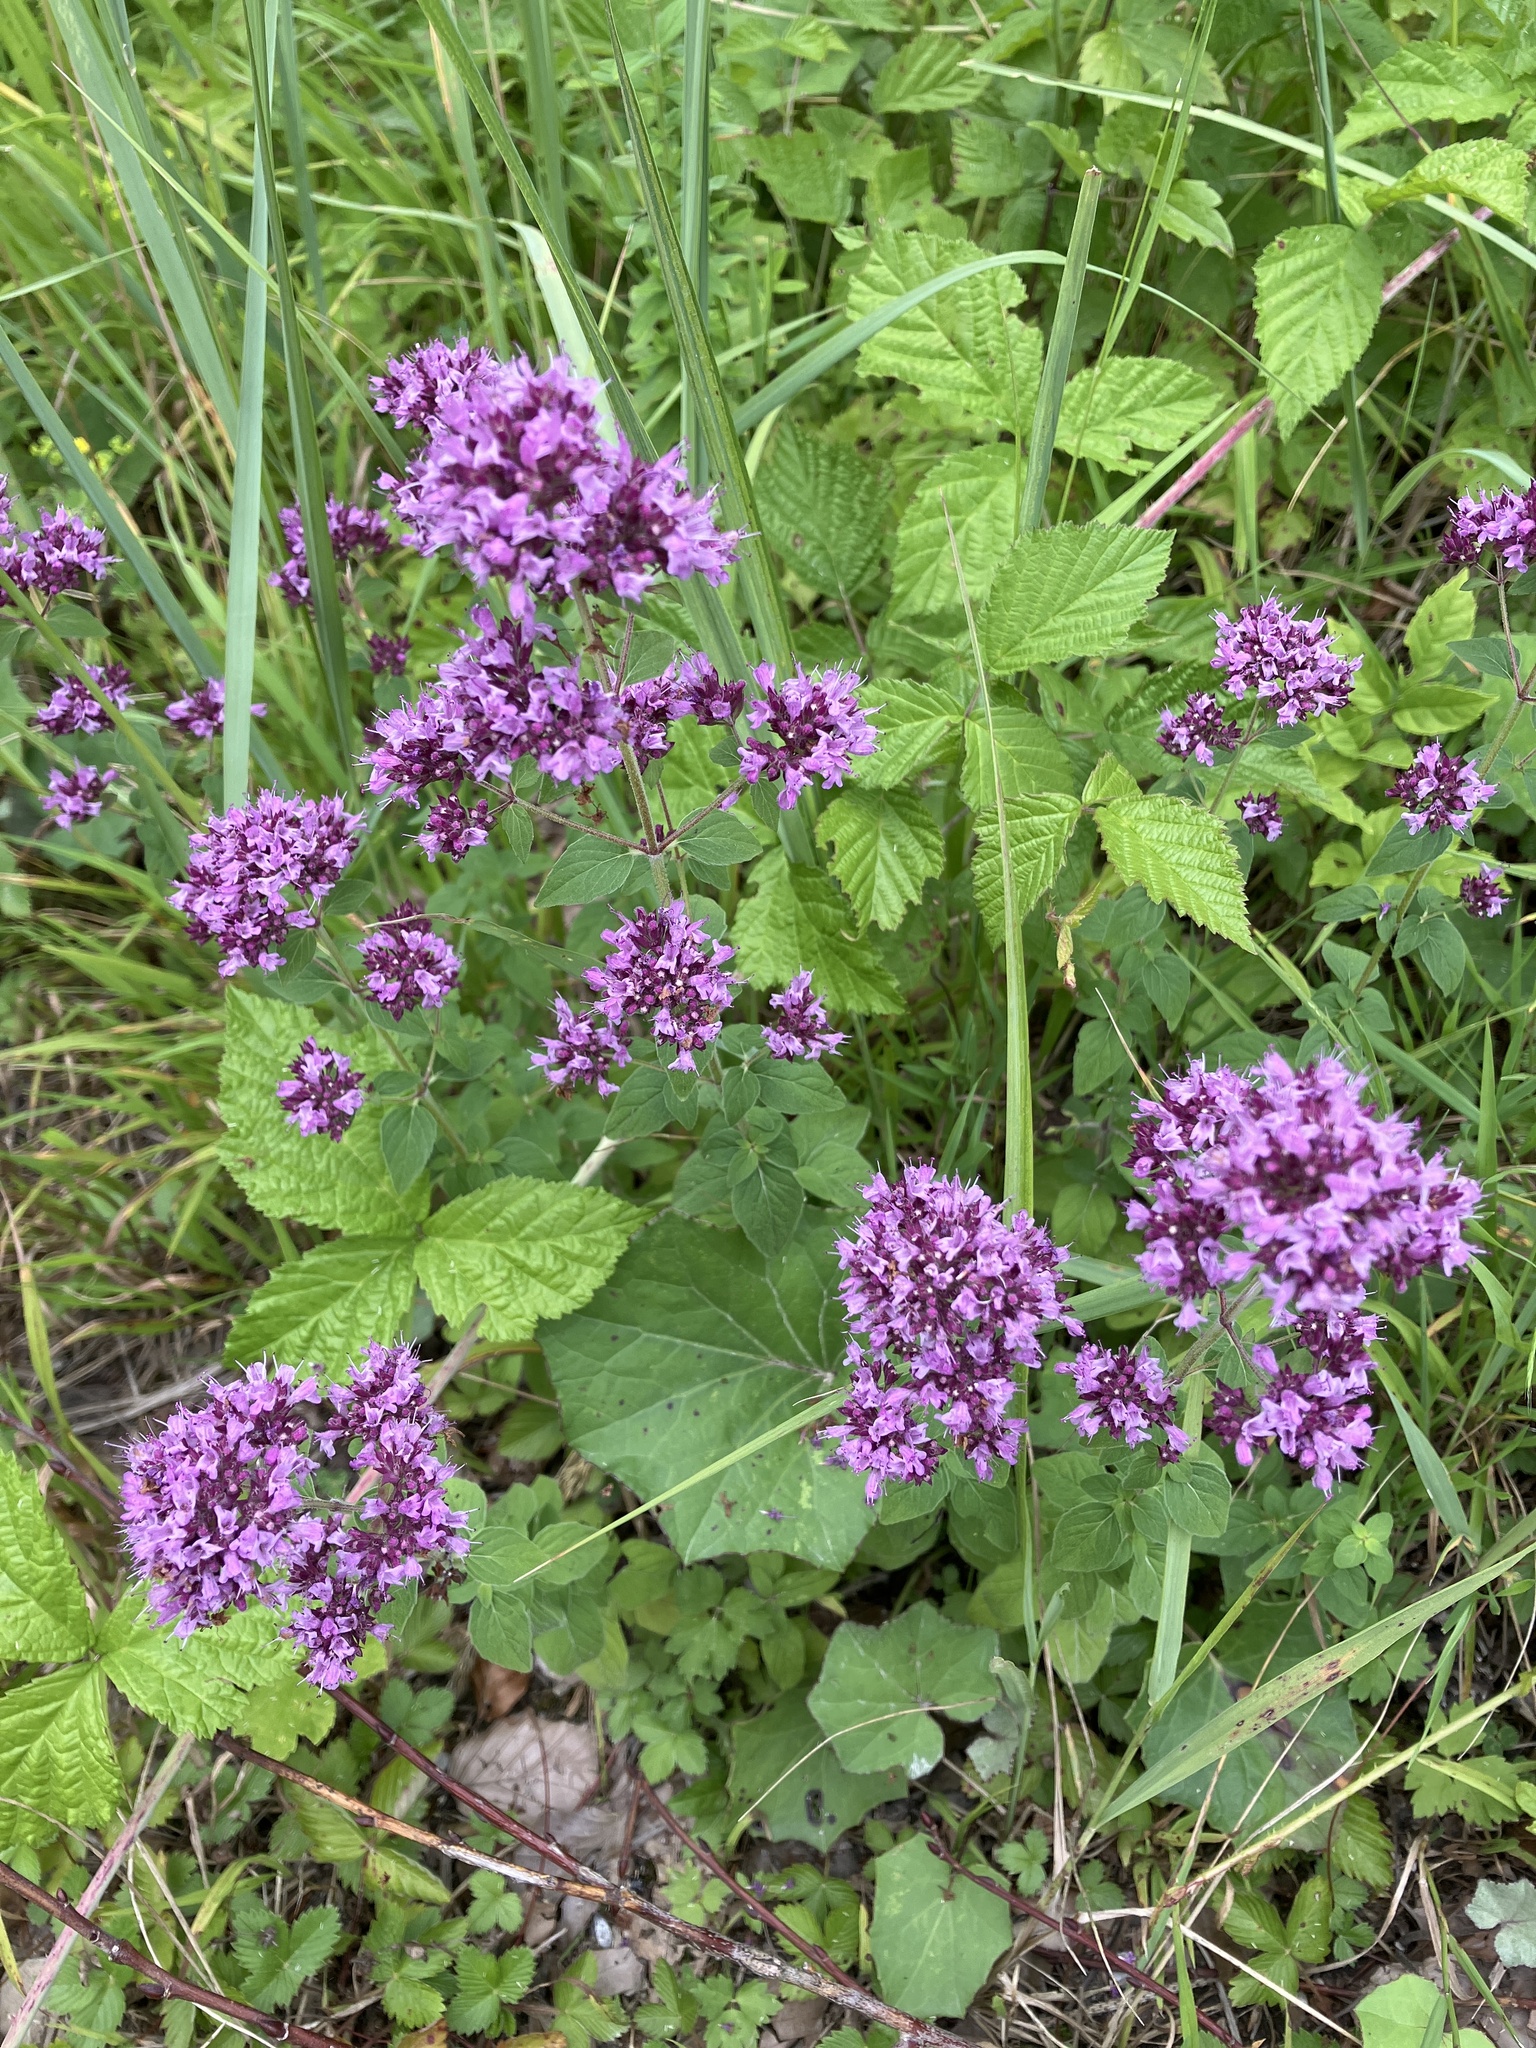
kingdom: Plantae
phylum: Tracheophyta
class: Magnoliopsida
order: Lamiales
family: Lamiaceae
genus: Origanum
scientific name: Origanum vulgare
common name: Wild marjoram
